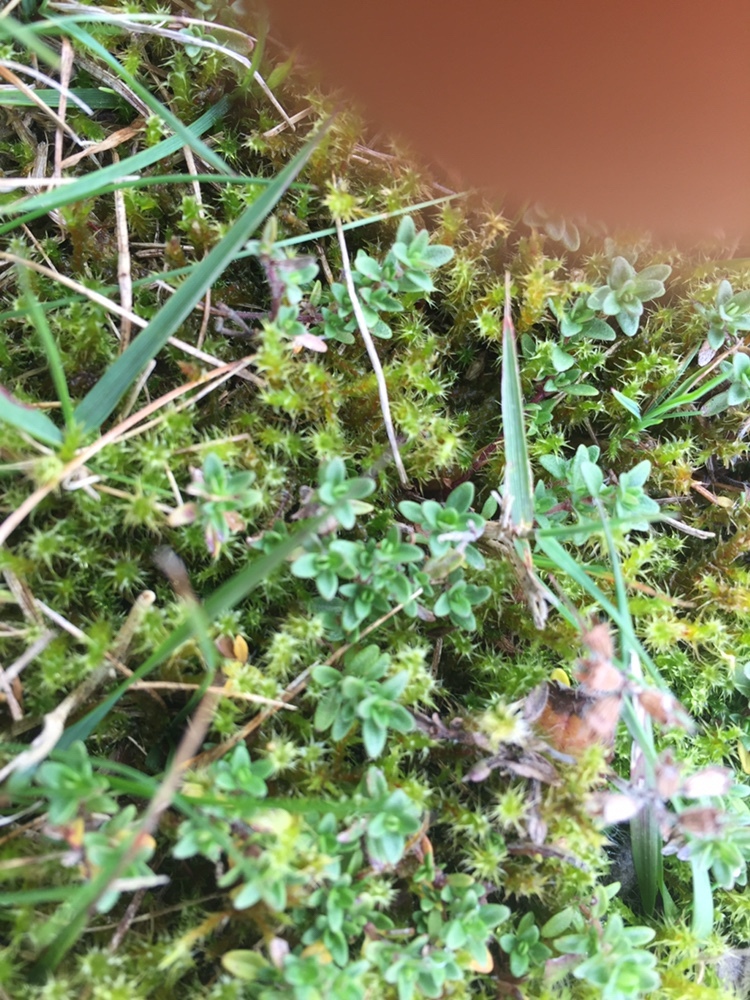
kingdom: Plantae
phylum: Tracheophyta
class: Magnoliopsida
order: Lamiales
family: Lamiaceae
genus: Thymus
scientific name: Thymus serpyllum
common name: Breckland thyme
